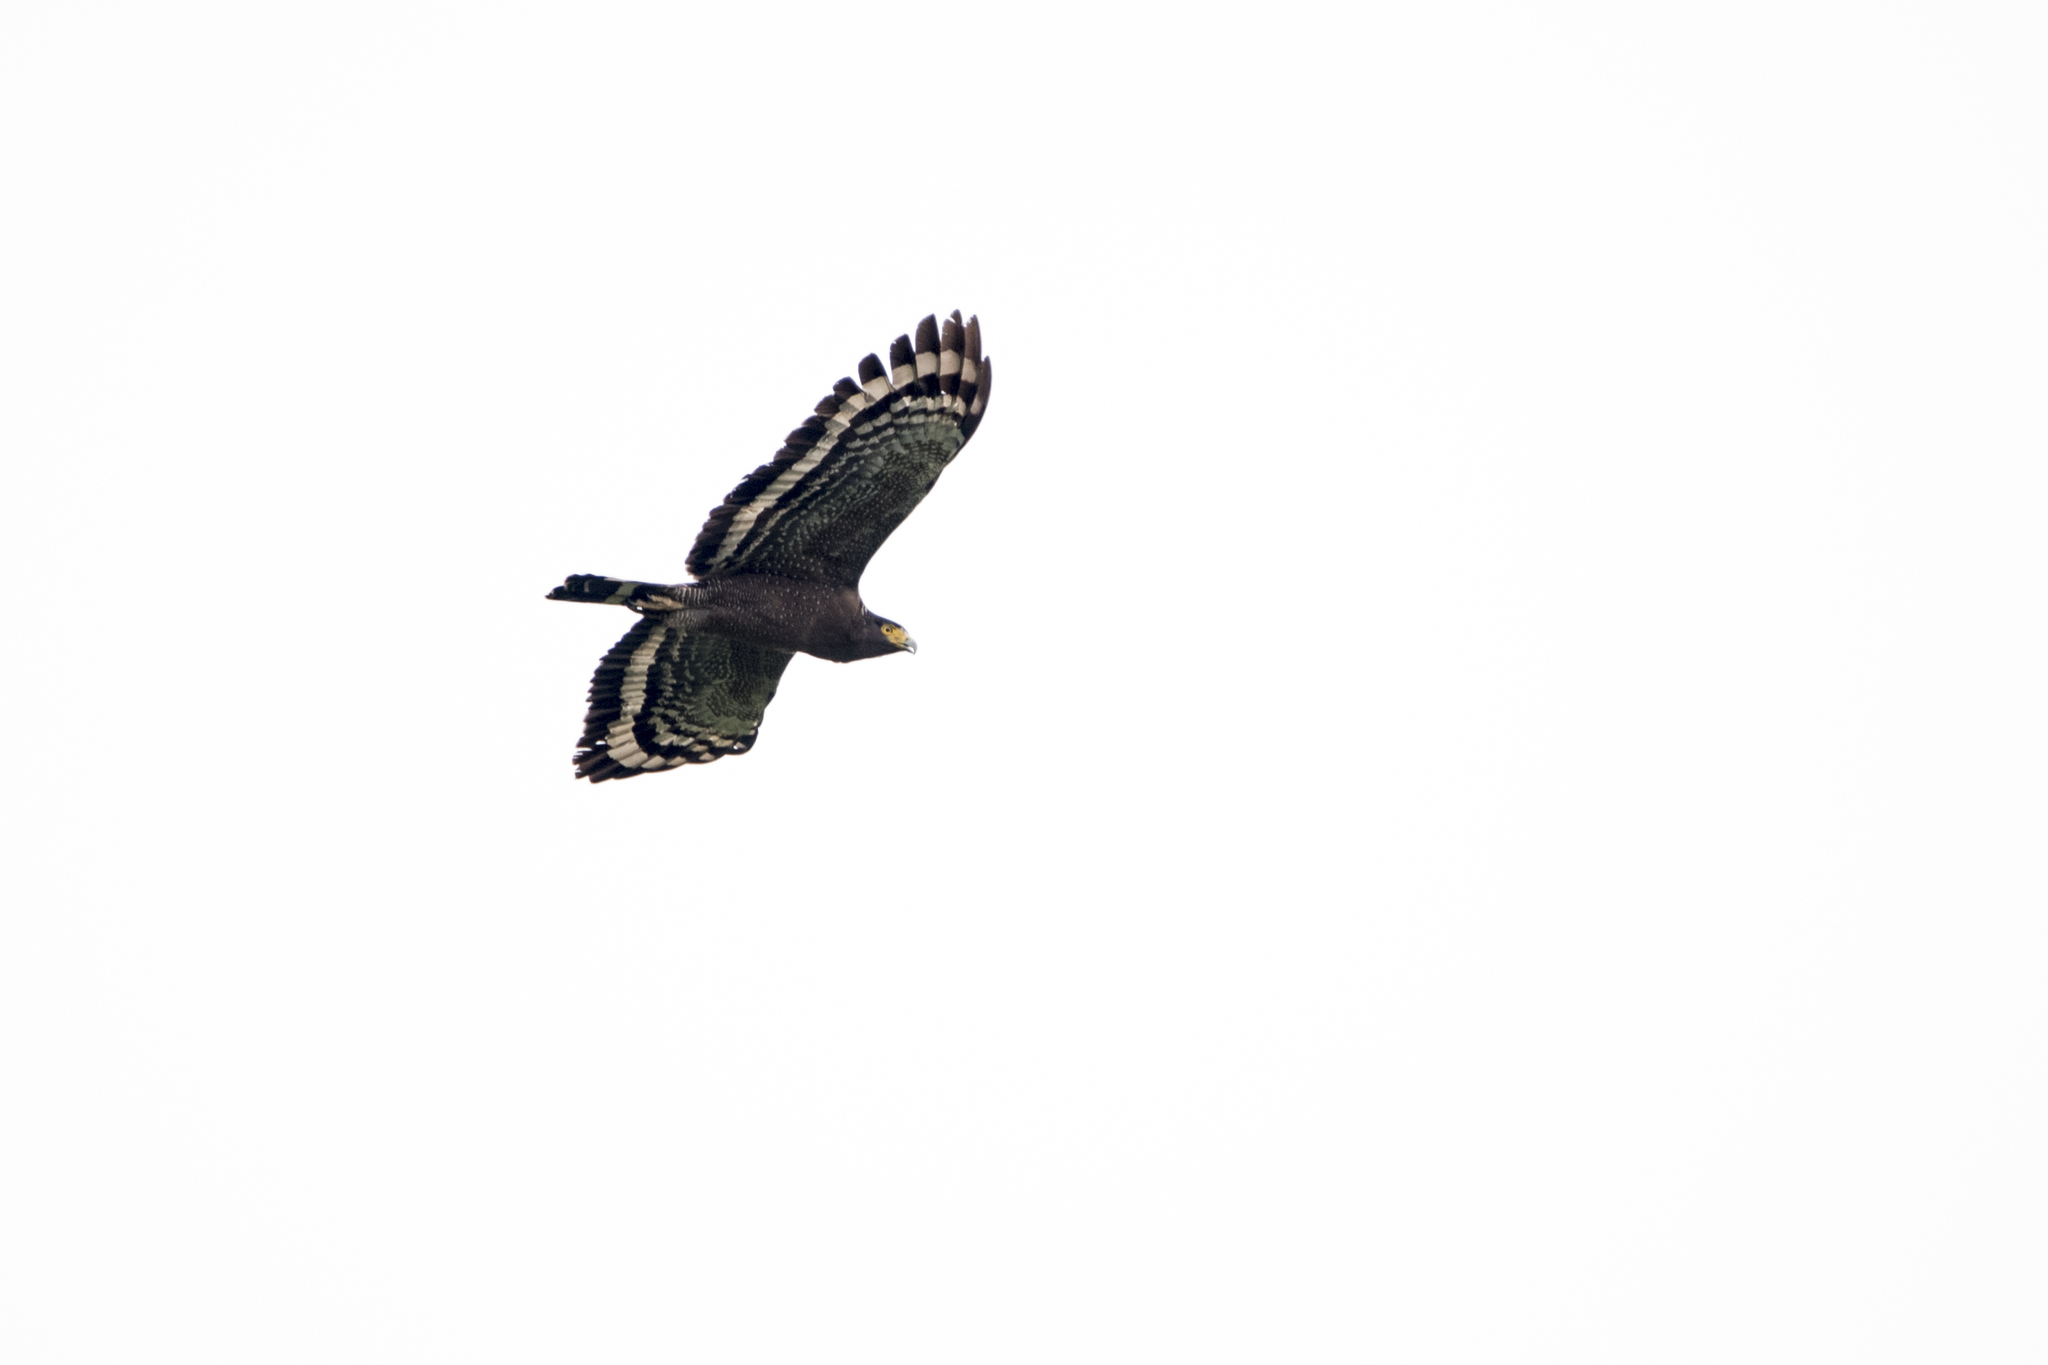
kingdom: Animalia
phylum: Chordata
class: Aves
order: Accipitriformes
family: Accipitridae
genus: Spilornis
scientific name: Spilornis cheela
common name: Crested serpent eagle
